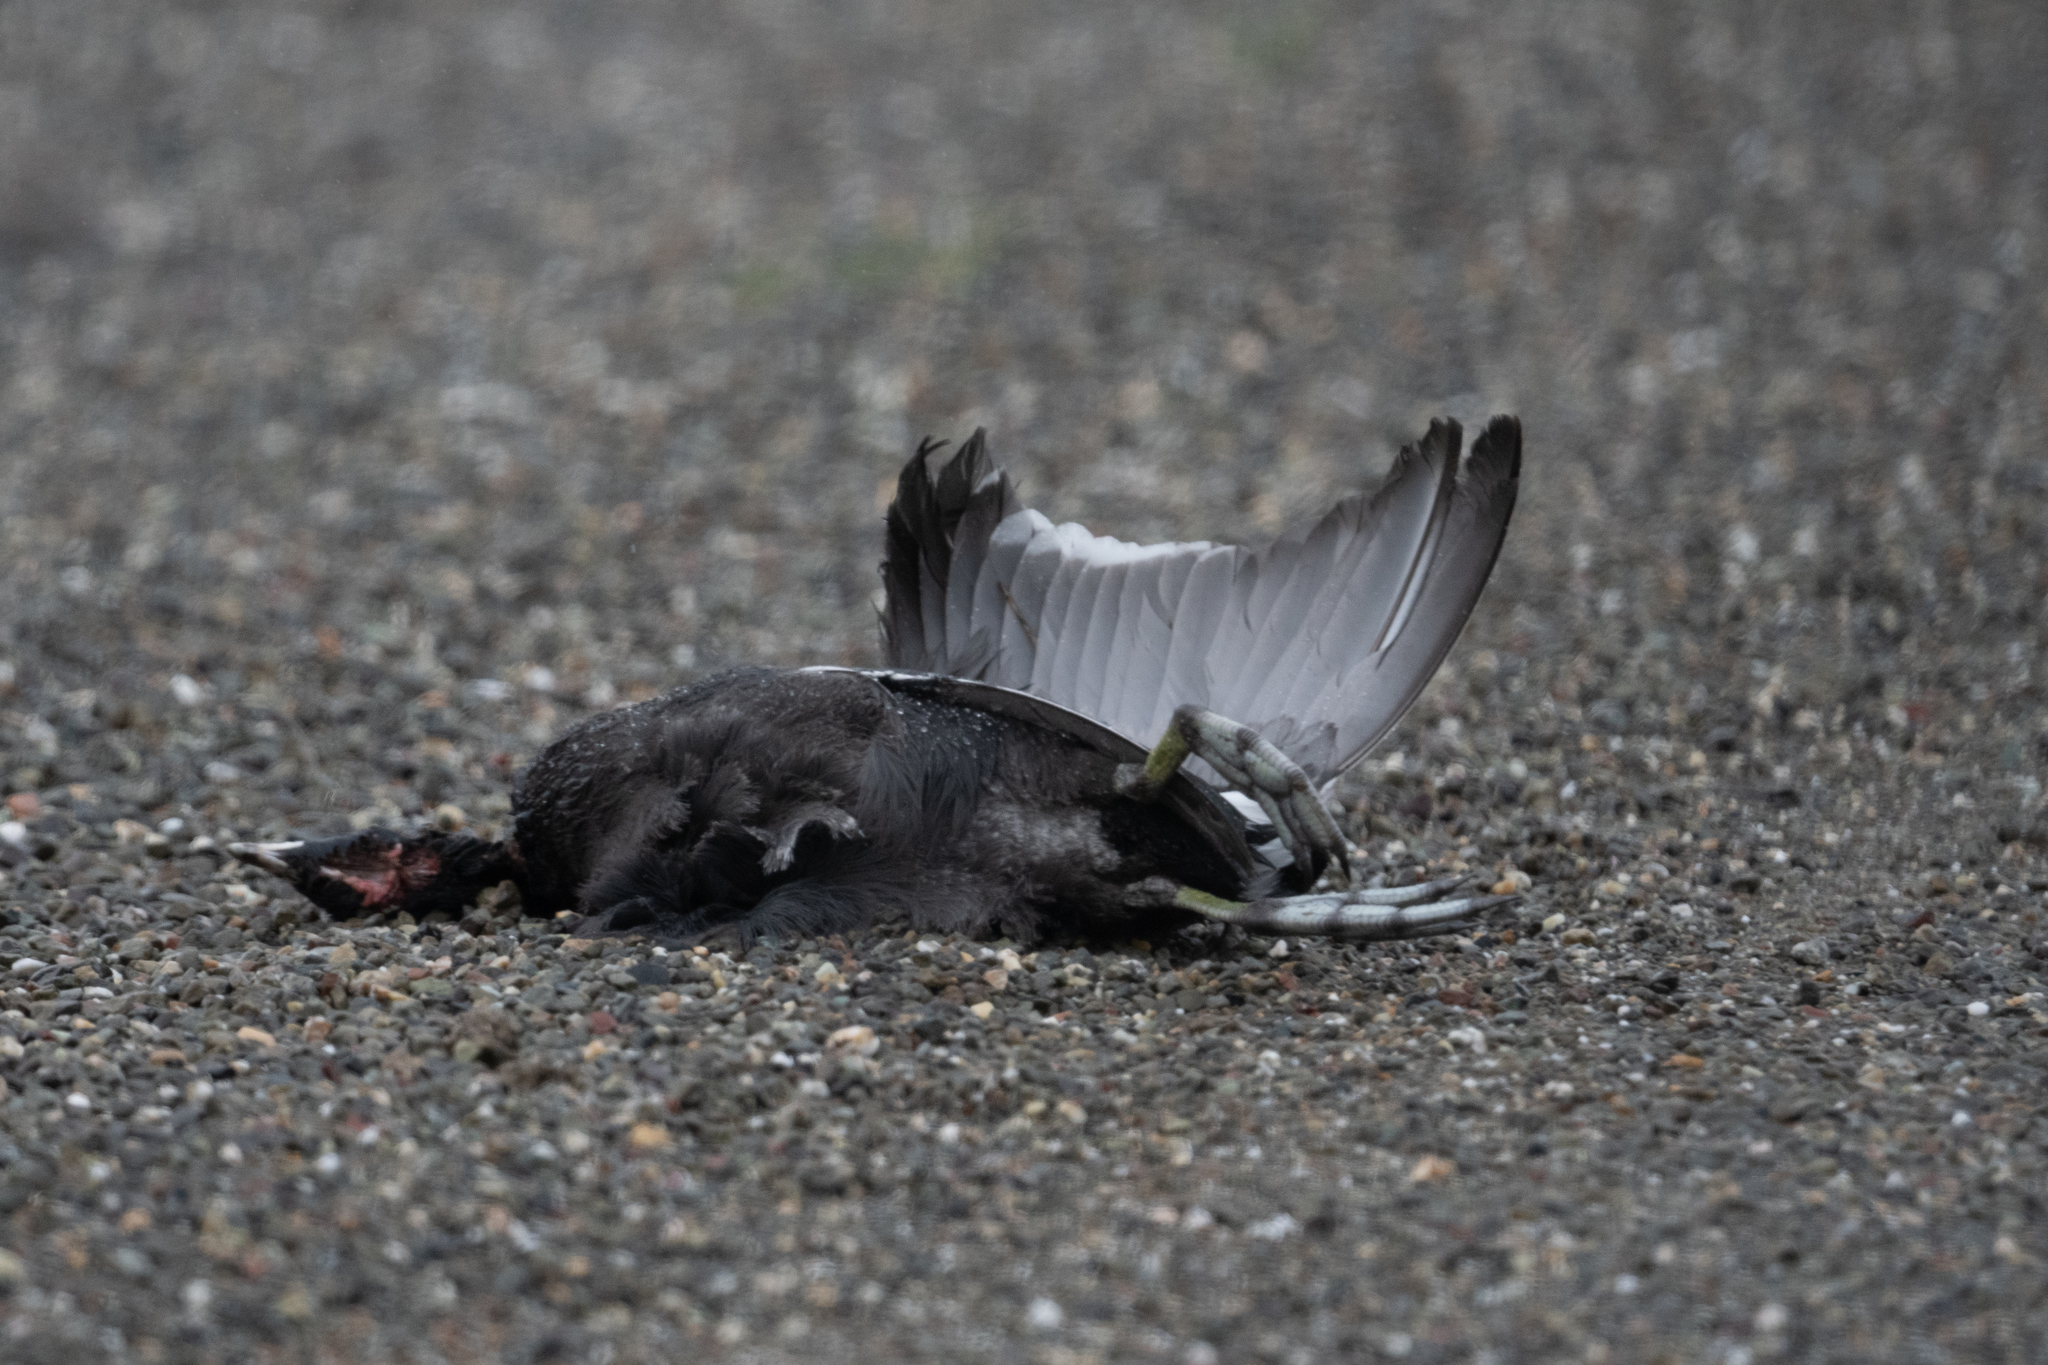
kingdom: Animalia
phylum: Chordata
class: Aves
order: Gruiformes
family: Rallidae
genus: Fulica
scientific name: Fulica americana
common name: American coot
